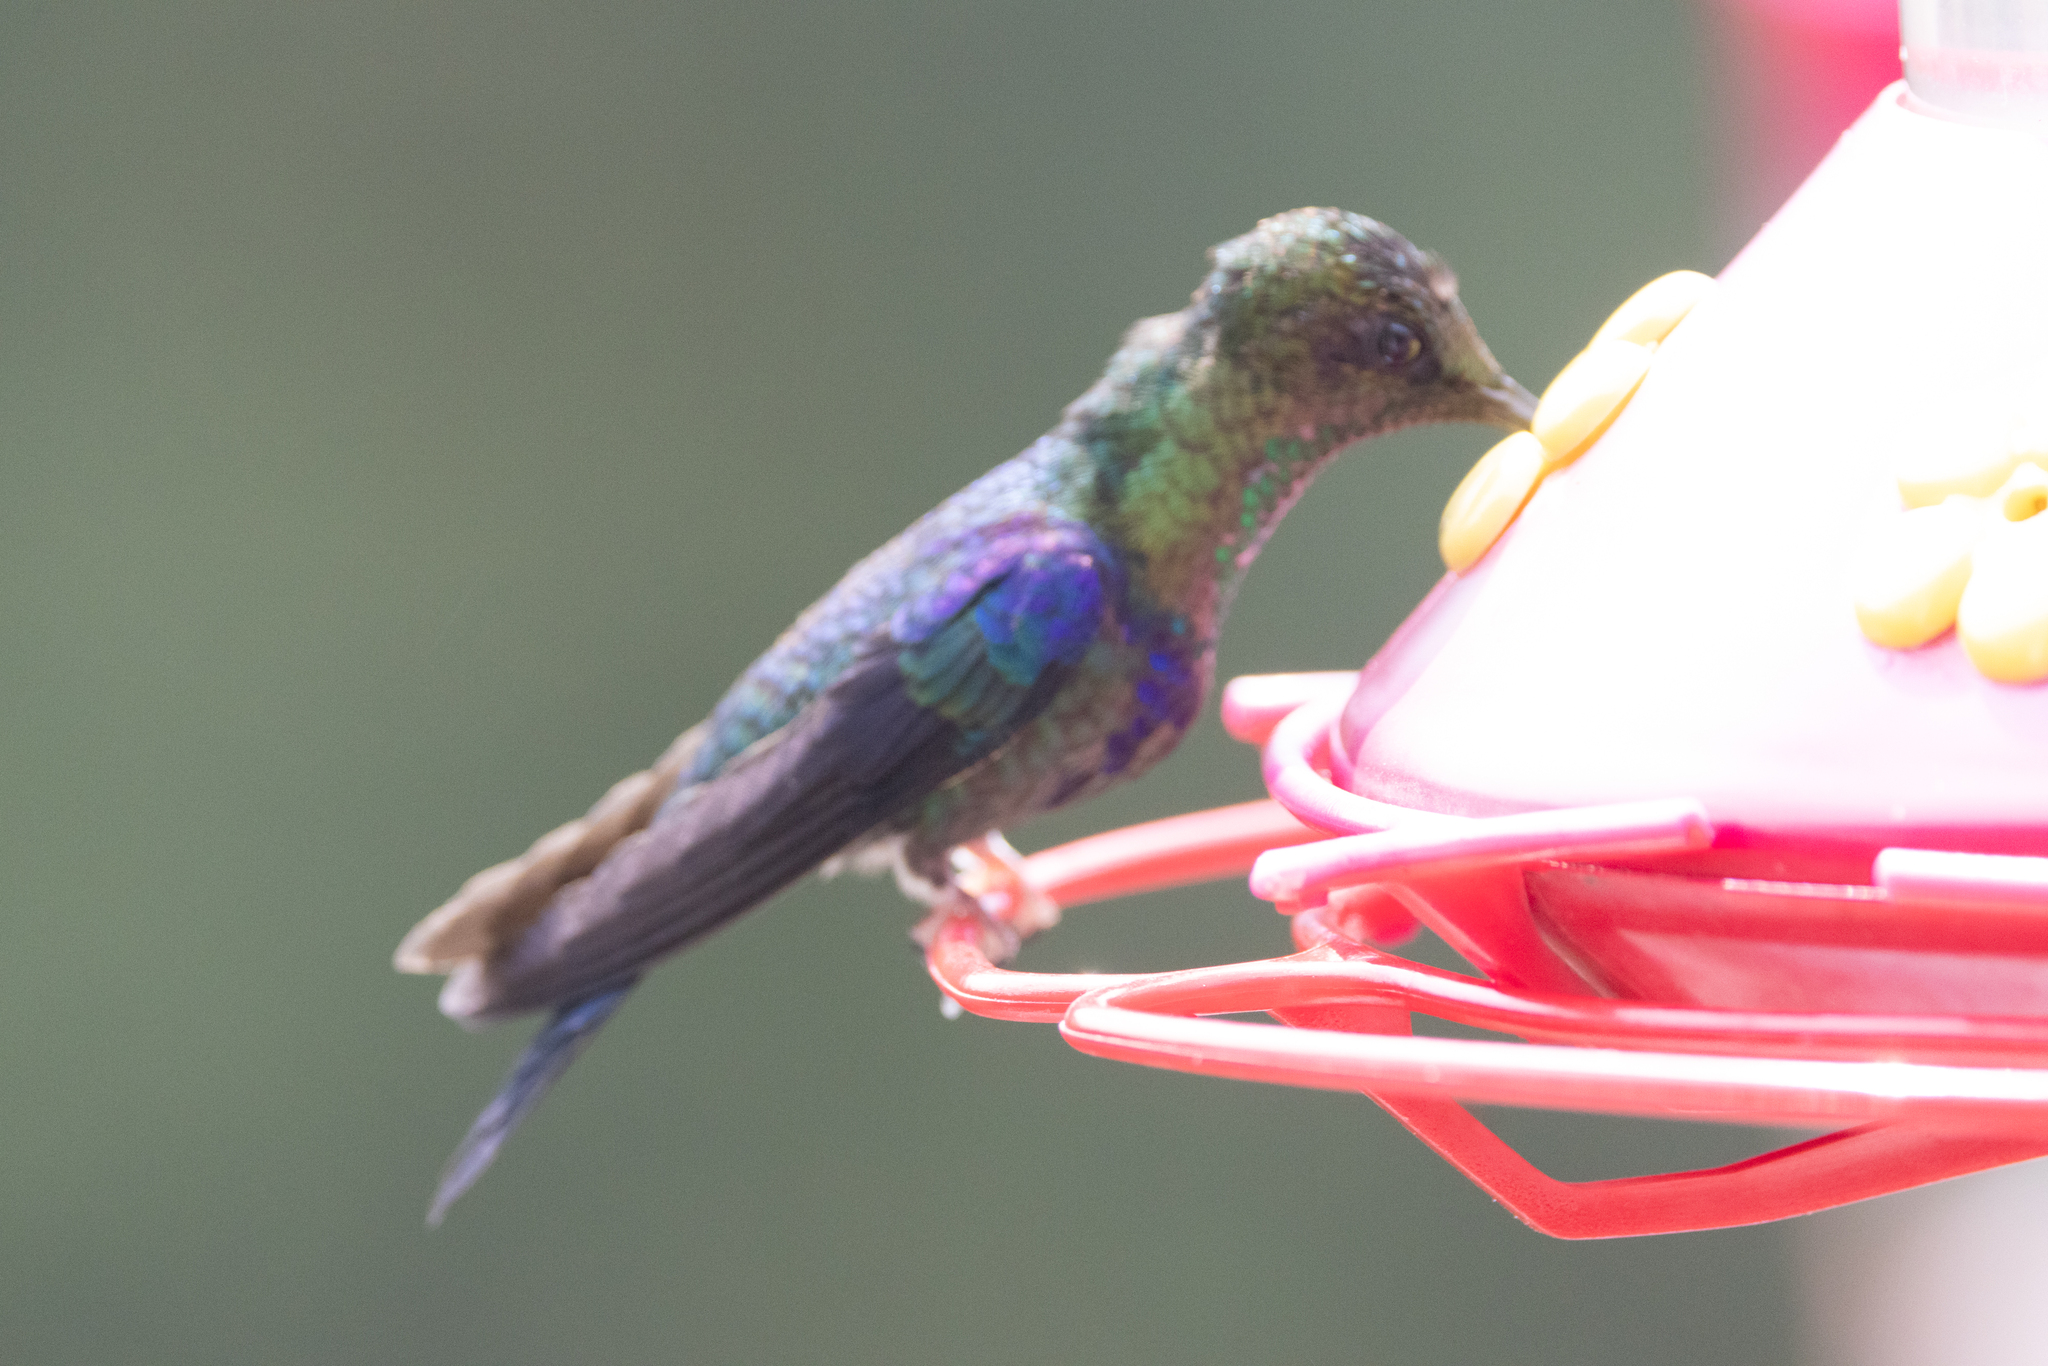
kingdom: Animalia
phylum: Chordata
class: Aves
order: Apodiformes
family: Trochilidae
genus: Thalurania
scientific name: Thalurania colombica
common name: Crowned woodnymph
